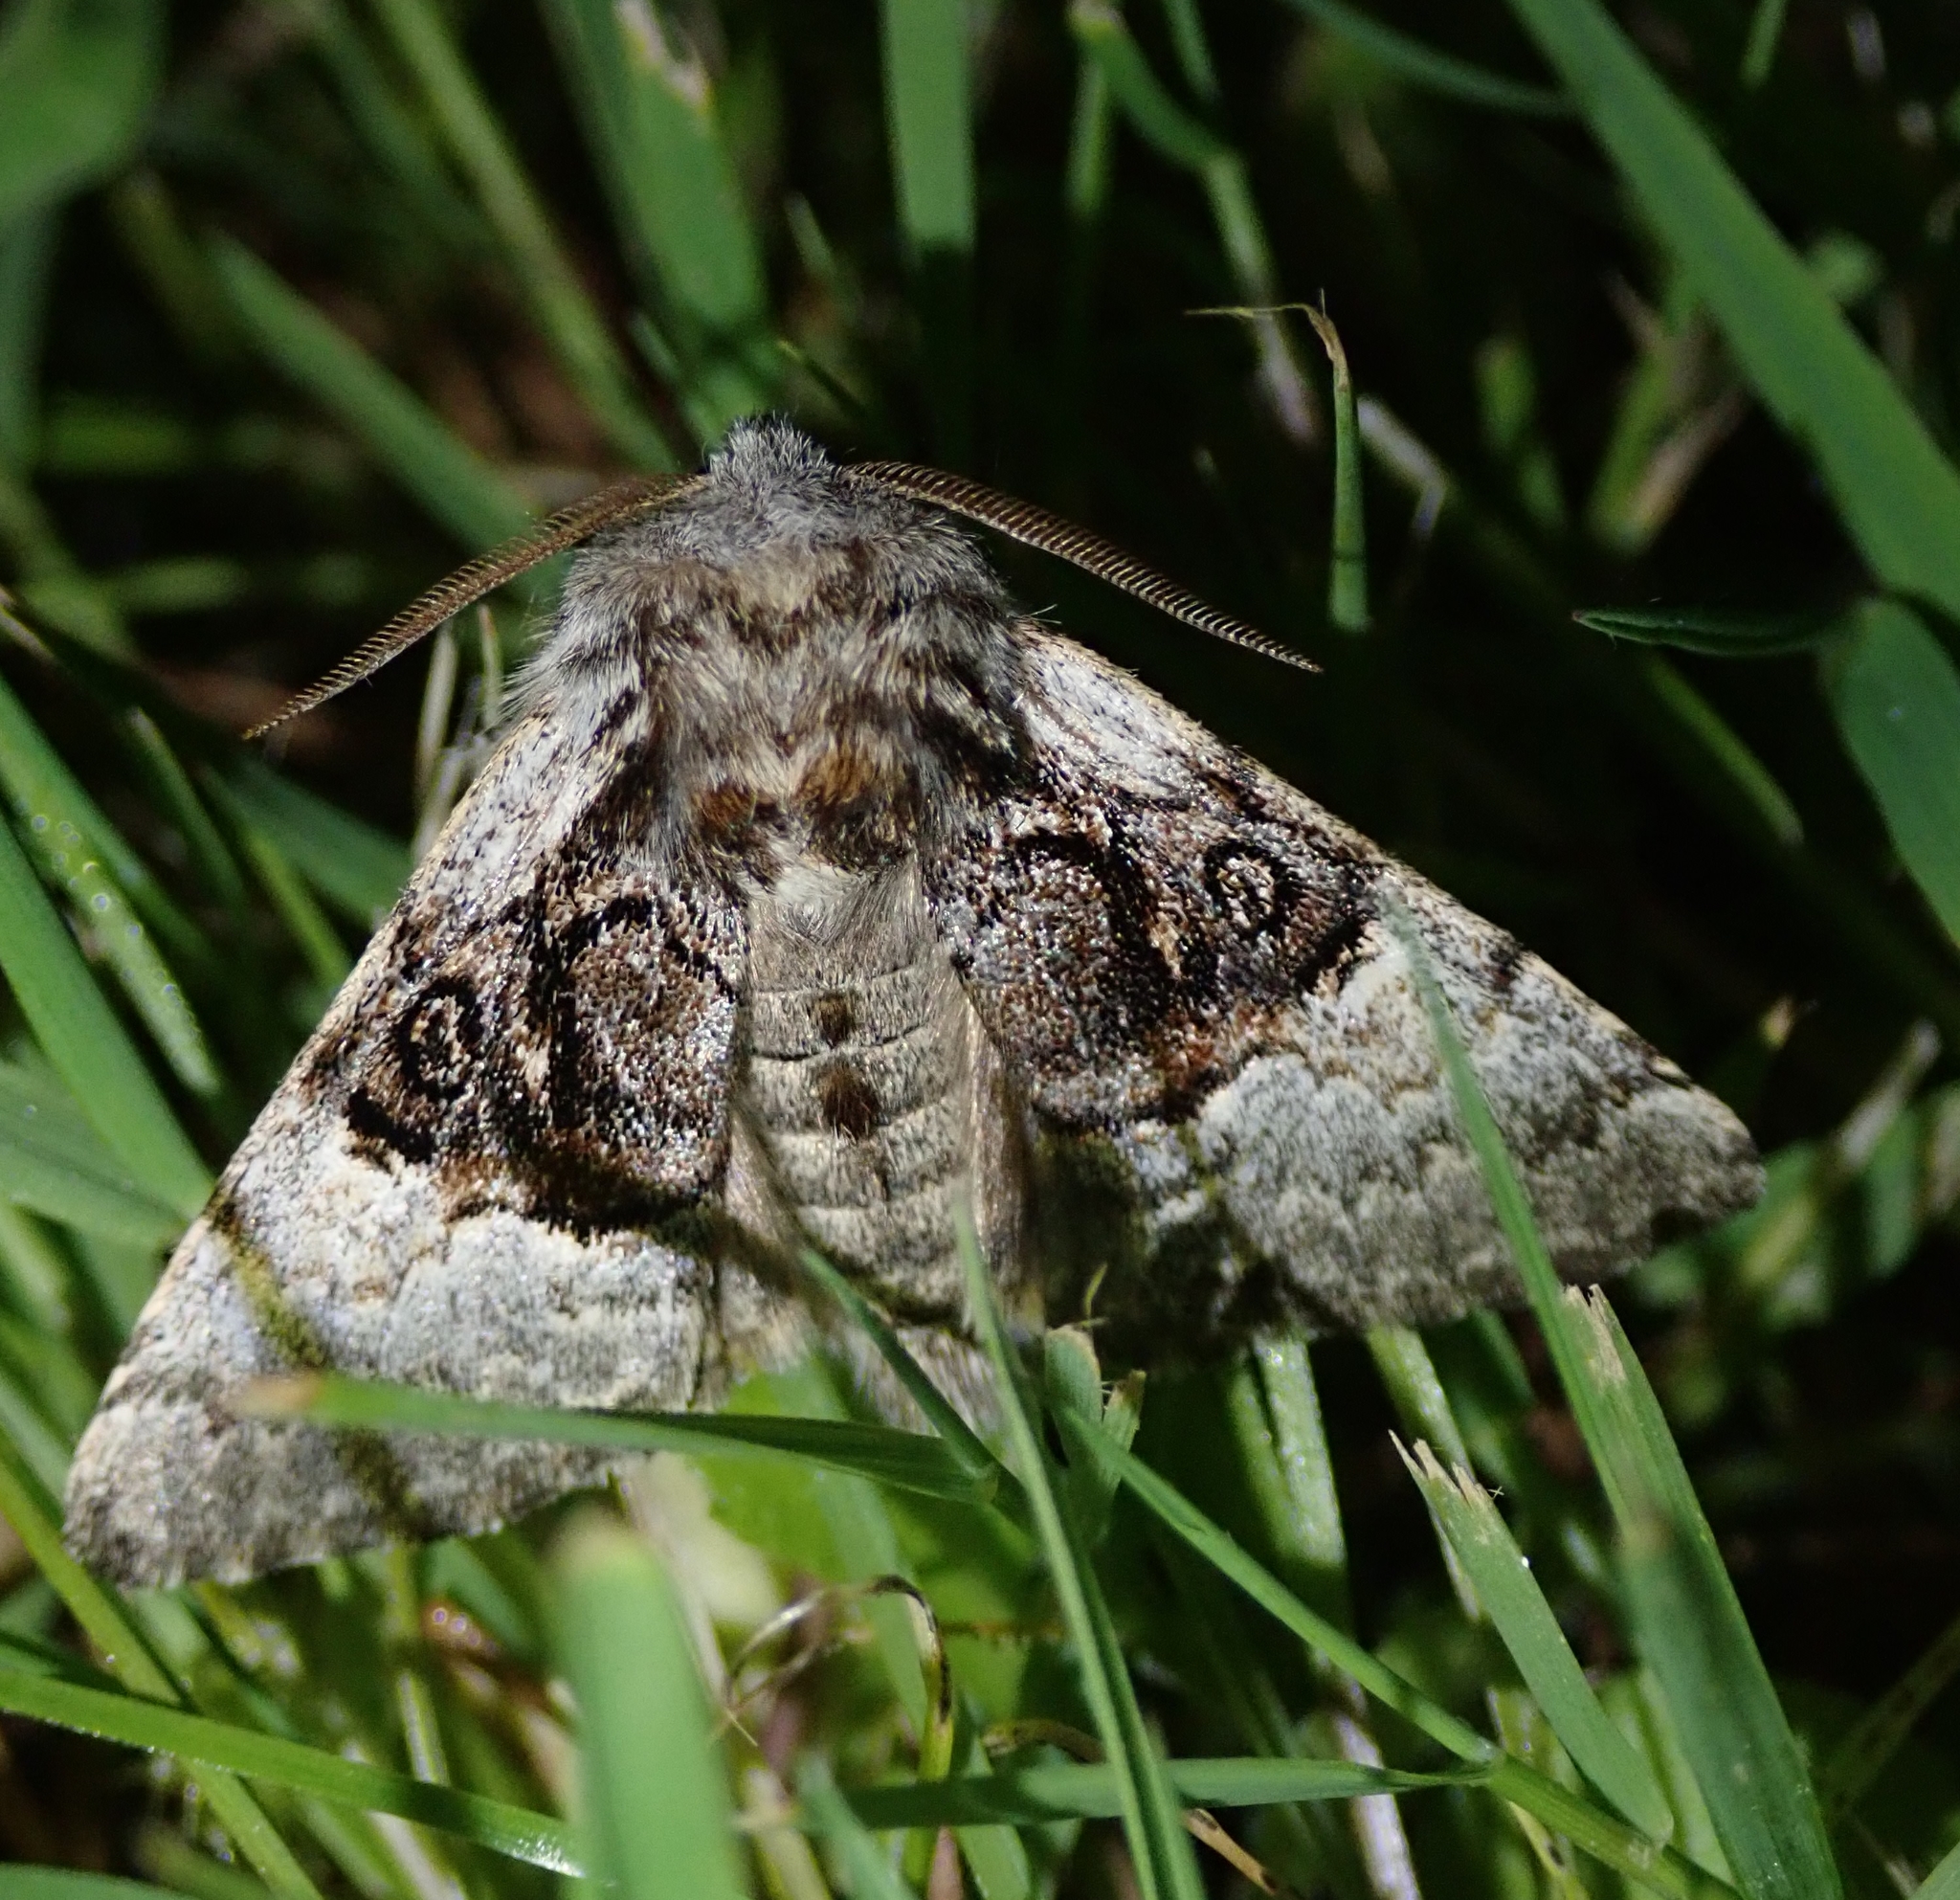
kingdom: Animalia
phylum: Arthropoda
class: Insecta
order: Lepidoptera
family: Noctuidae
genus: Colocasia
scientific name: Colocasia coryli
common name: Nut-tree tussock
